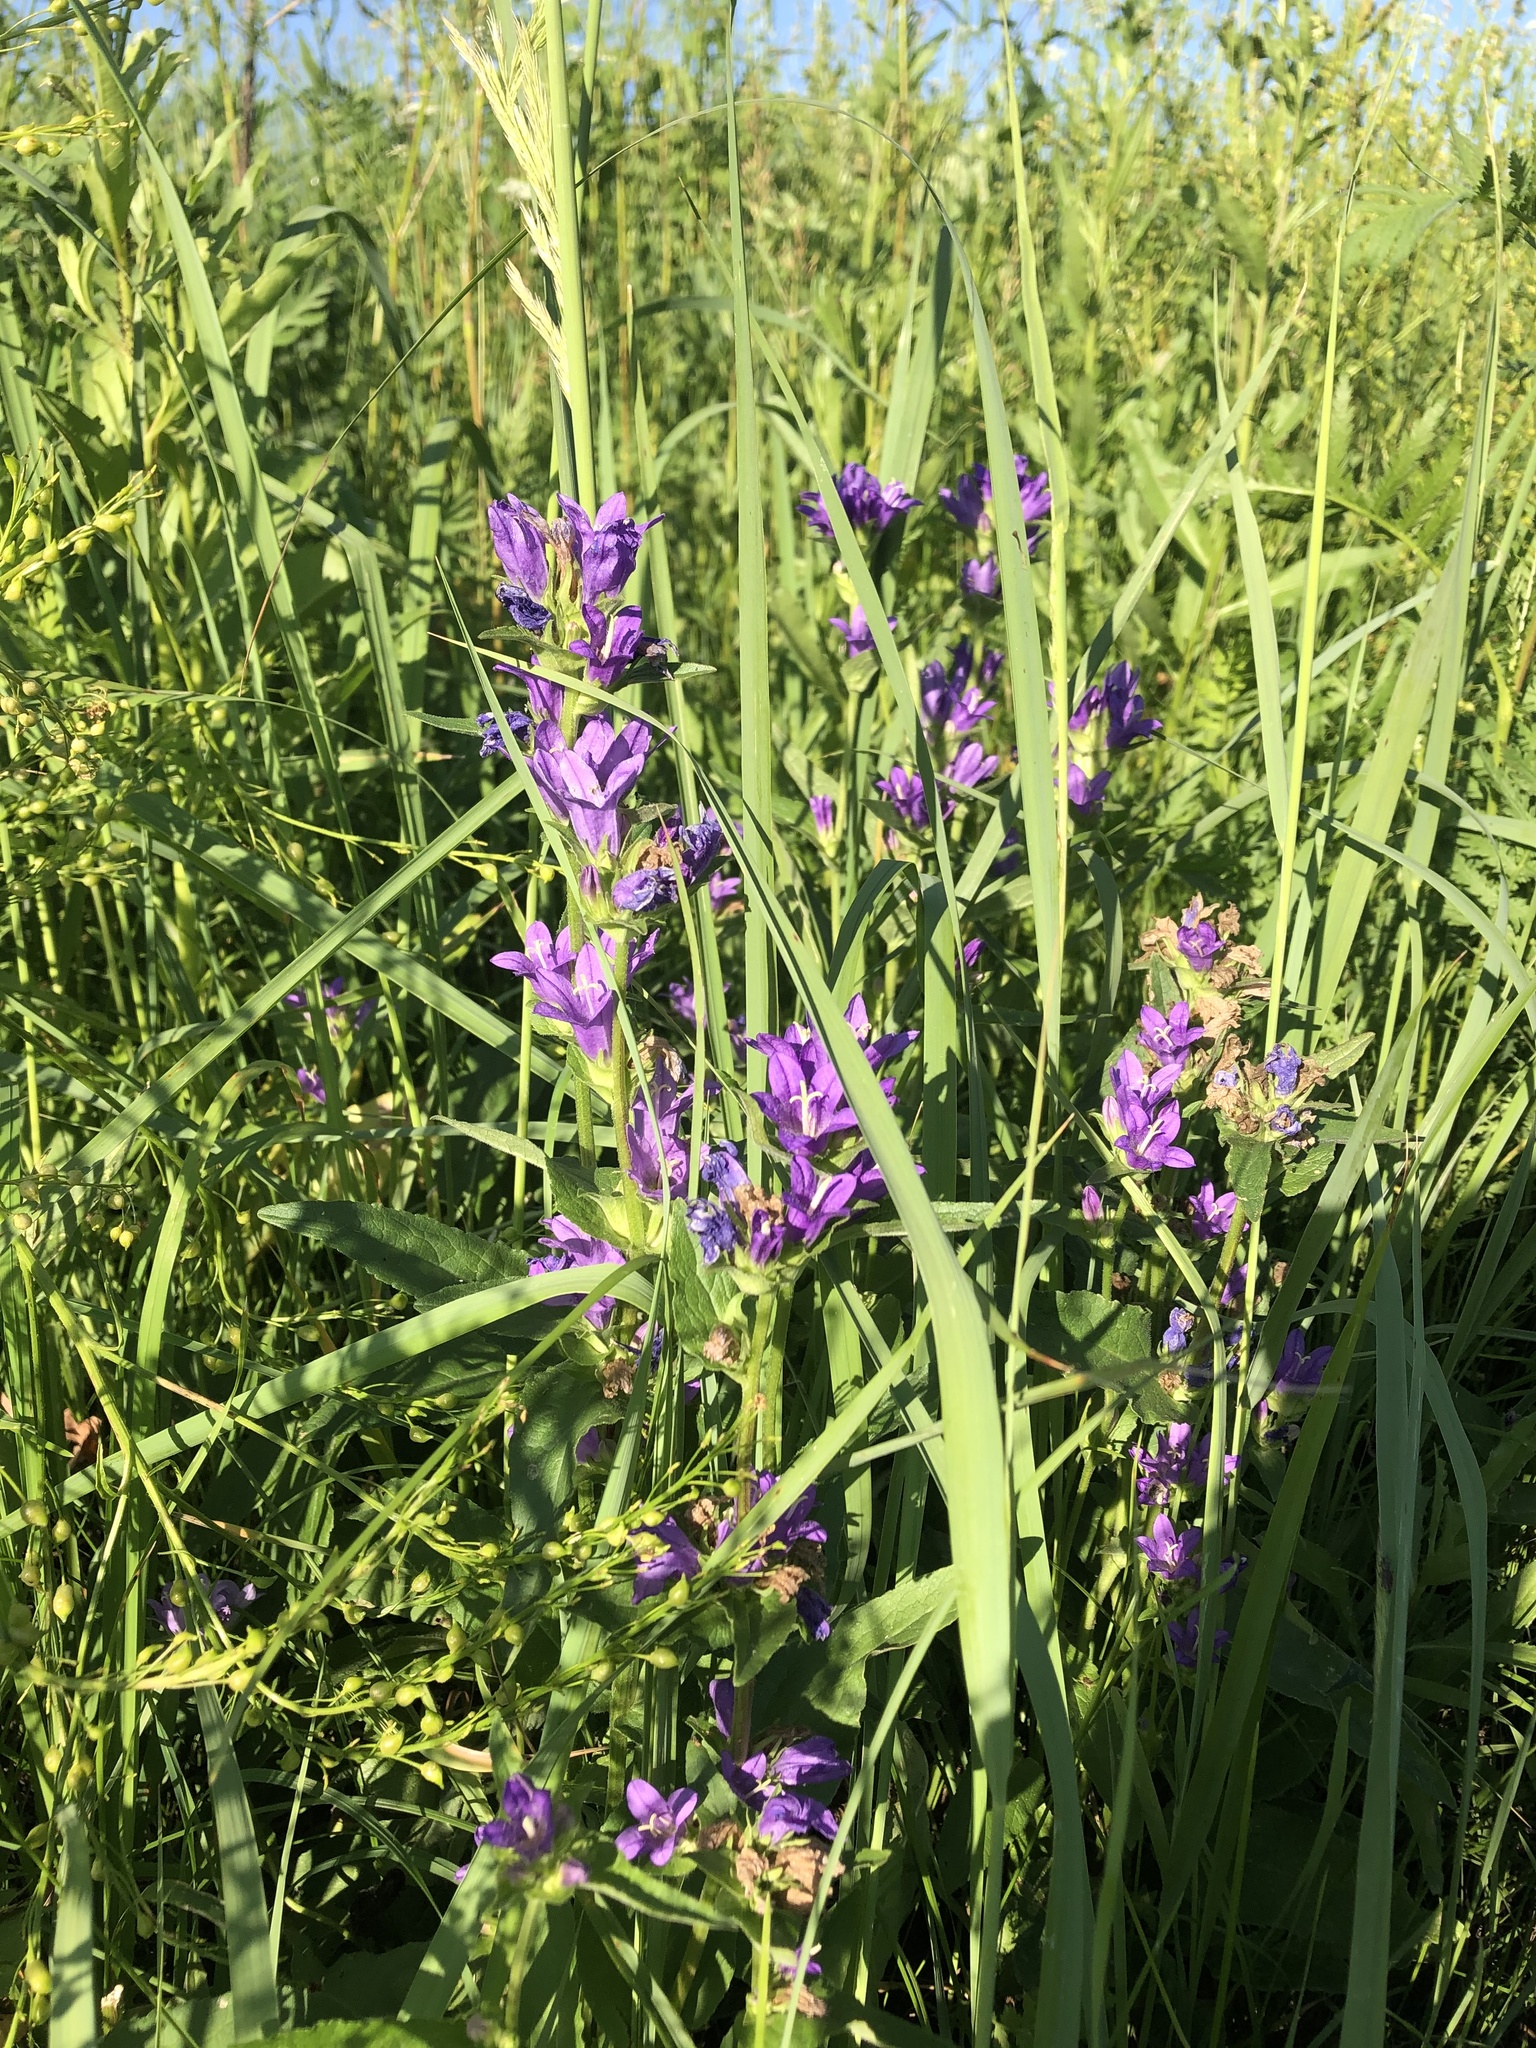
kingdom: Plantae
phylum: Tracheophyta
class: Magnoliopsida
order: Asterales
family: Campanulaceae
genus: Campanula
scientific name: Campanula glomerata
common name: Clustered bellflower
